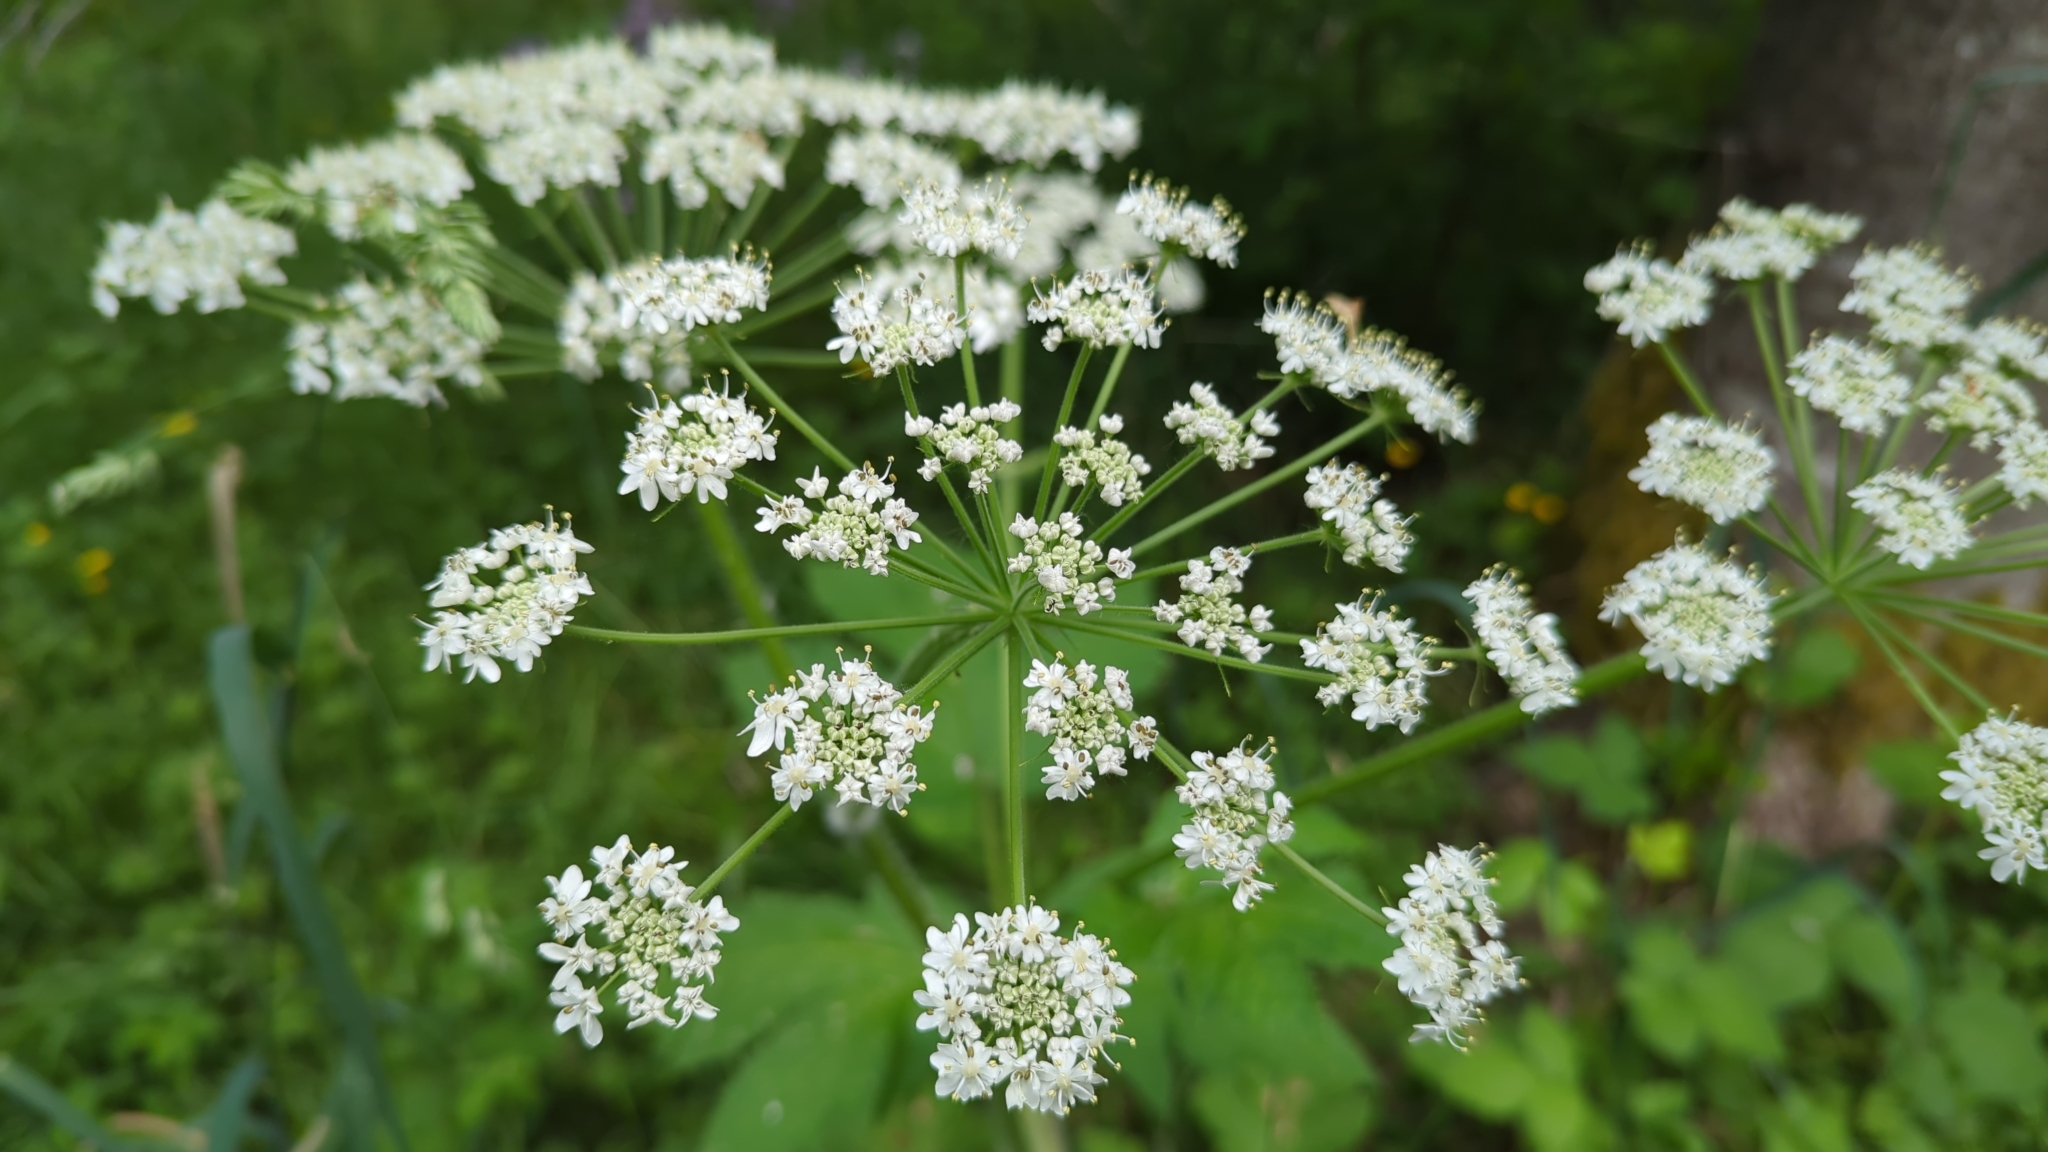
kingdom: Plantae
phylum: Tracheophyta
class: Magnoliopsida
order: Apiales
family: Apiaceae
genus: Heracleum
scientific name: Heracleum maximum
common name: American cow parsnip
